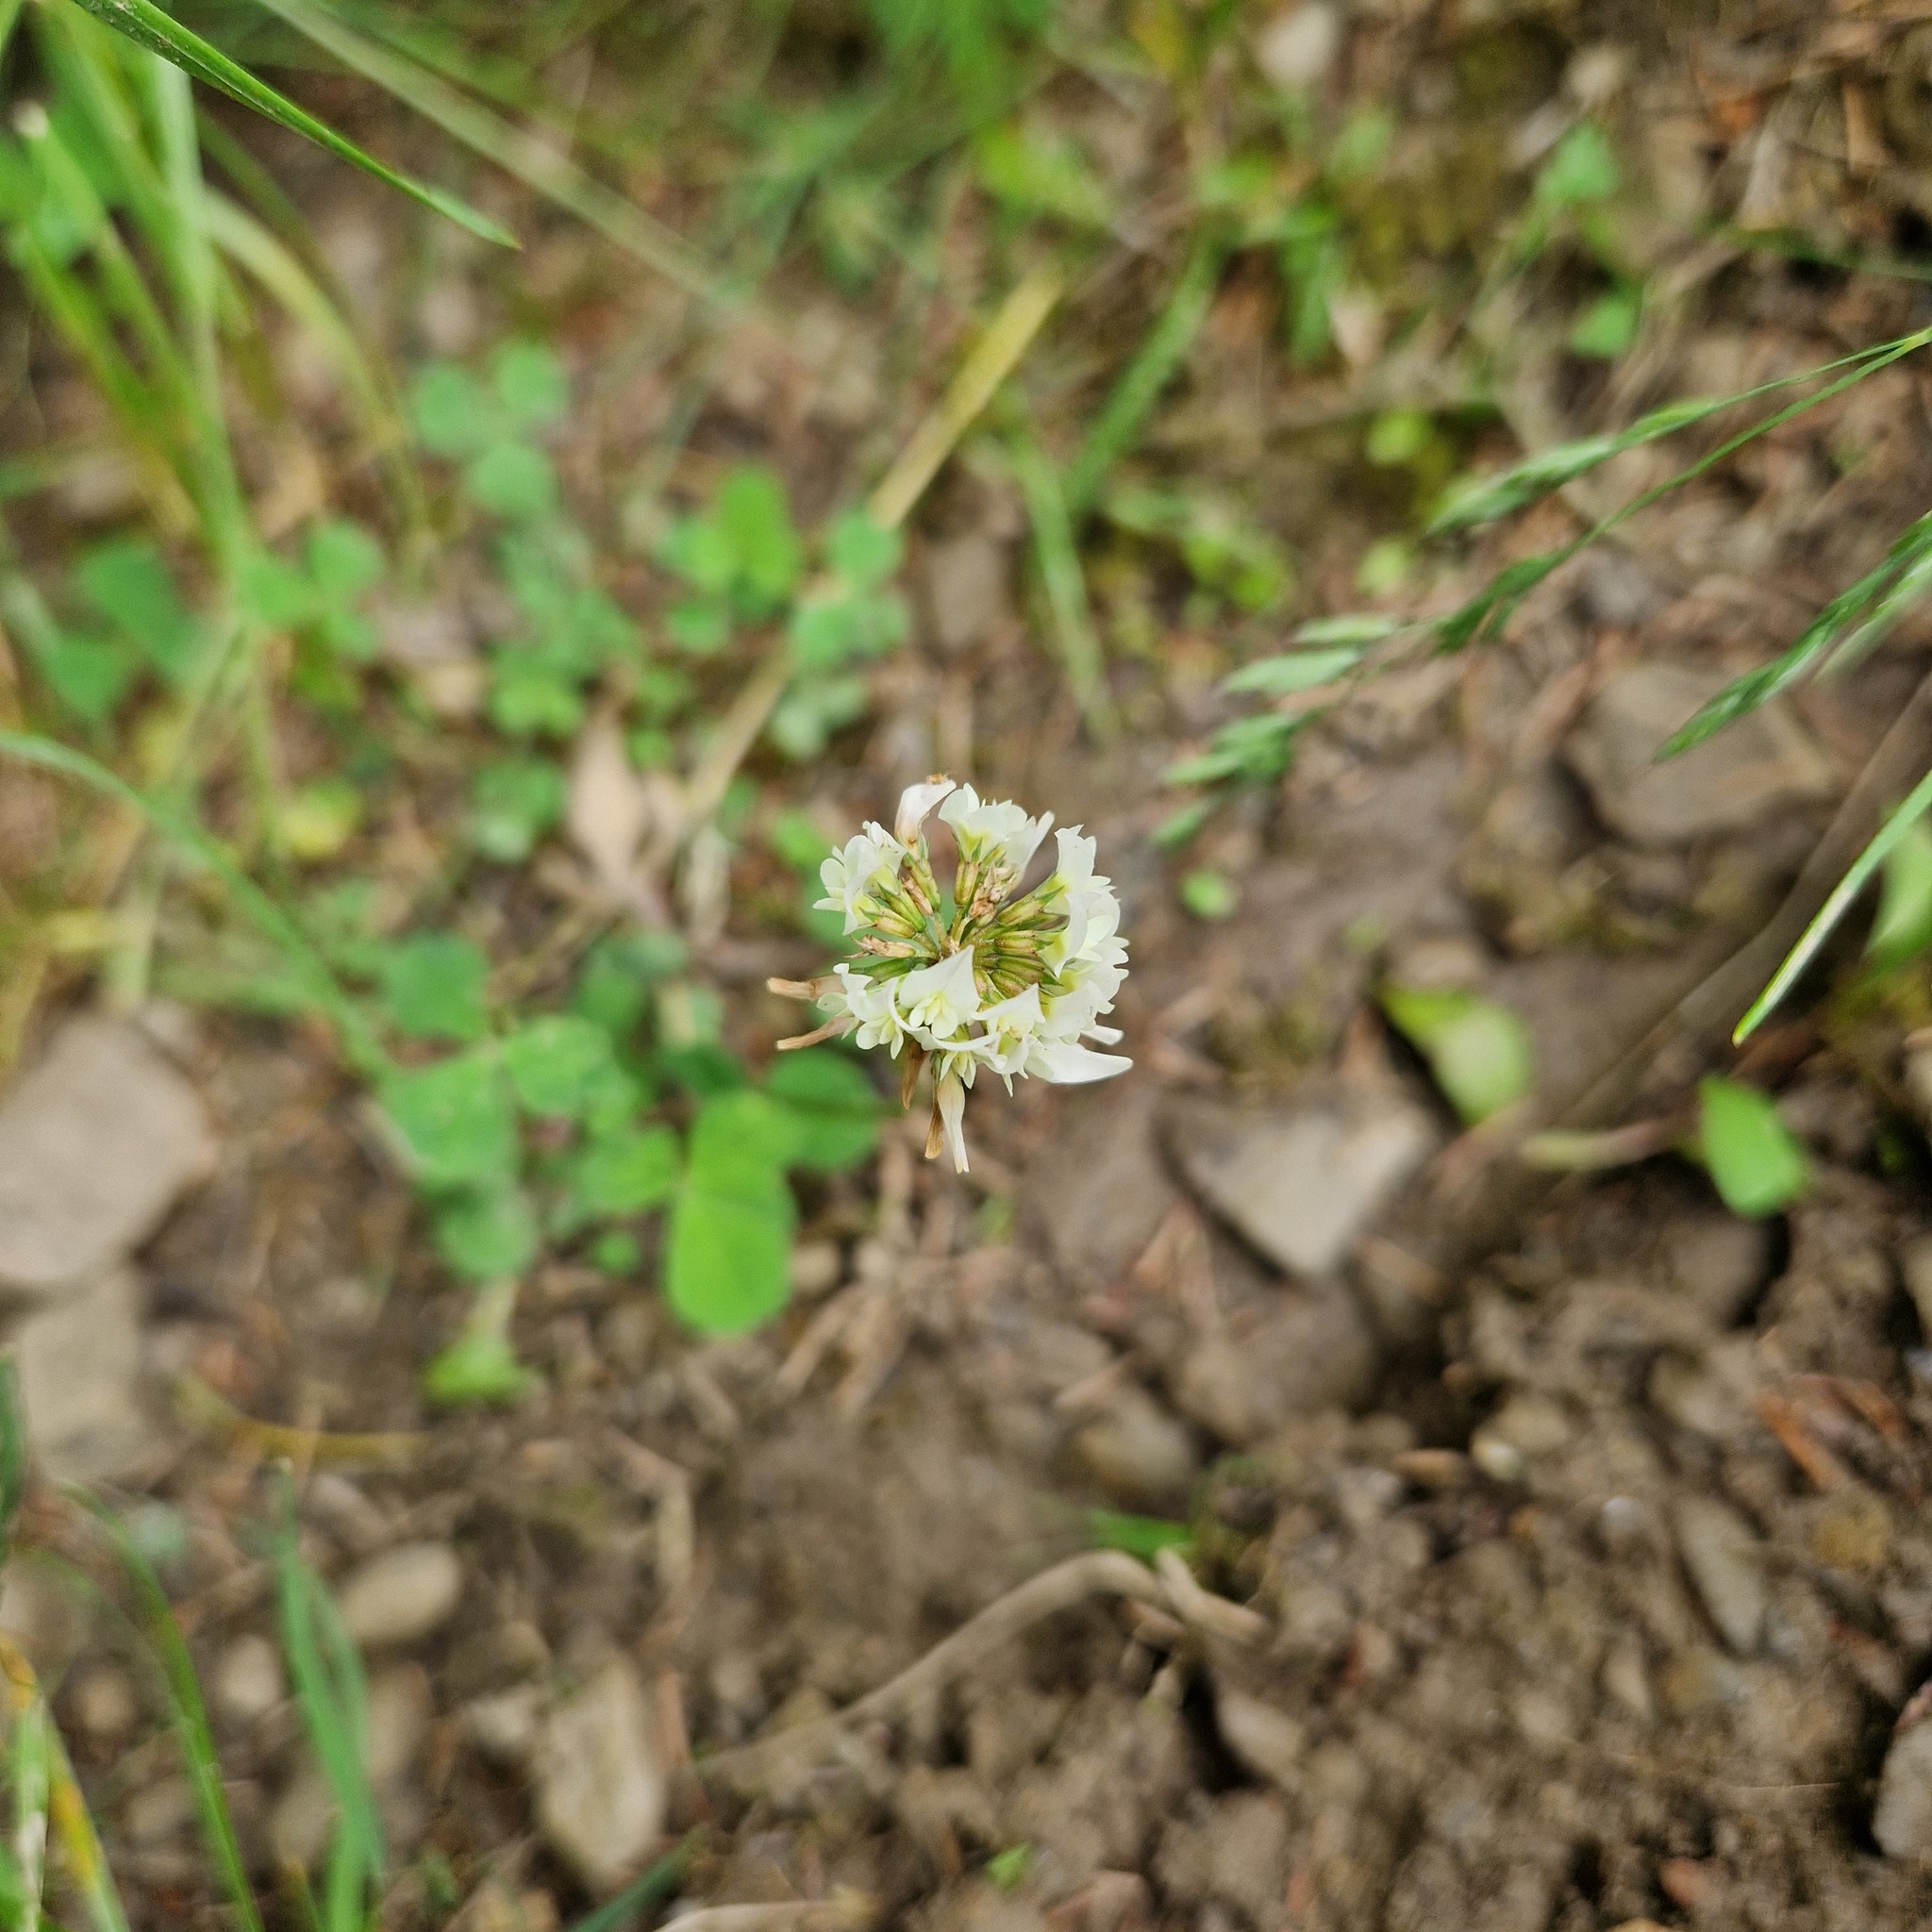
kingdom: Plantae
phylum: Tracheophyta
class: Magnoliopsida
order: Fabales
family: Fabaceae
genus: Trifolium
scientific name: Trifolium repens
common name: White clover
